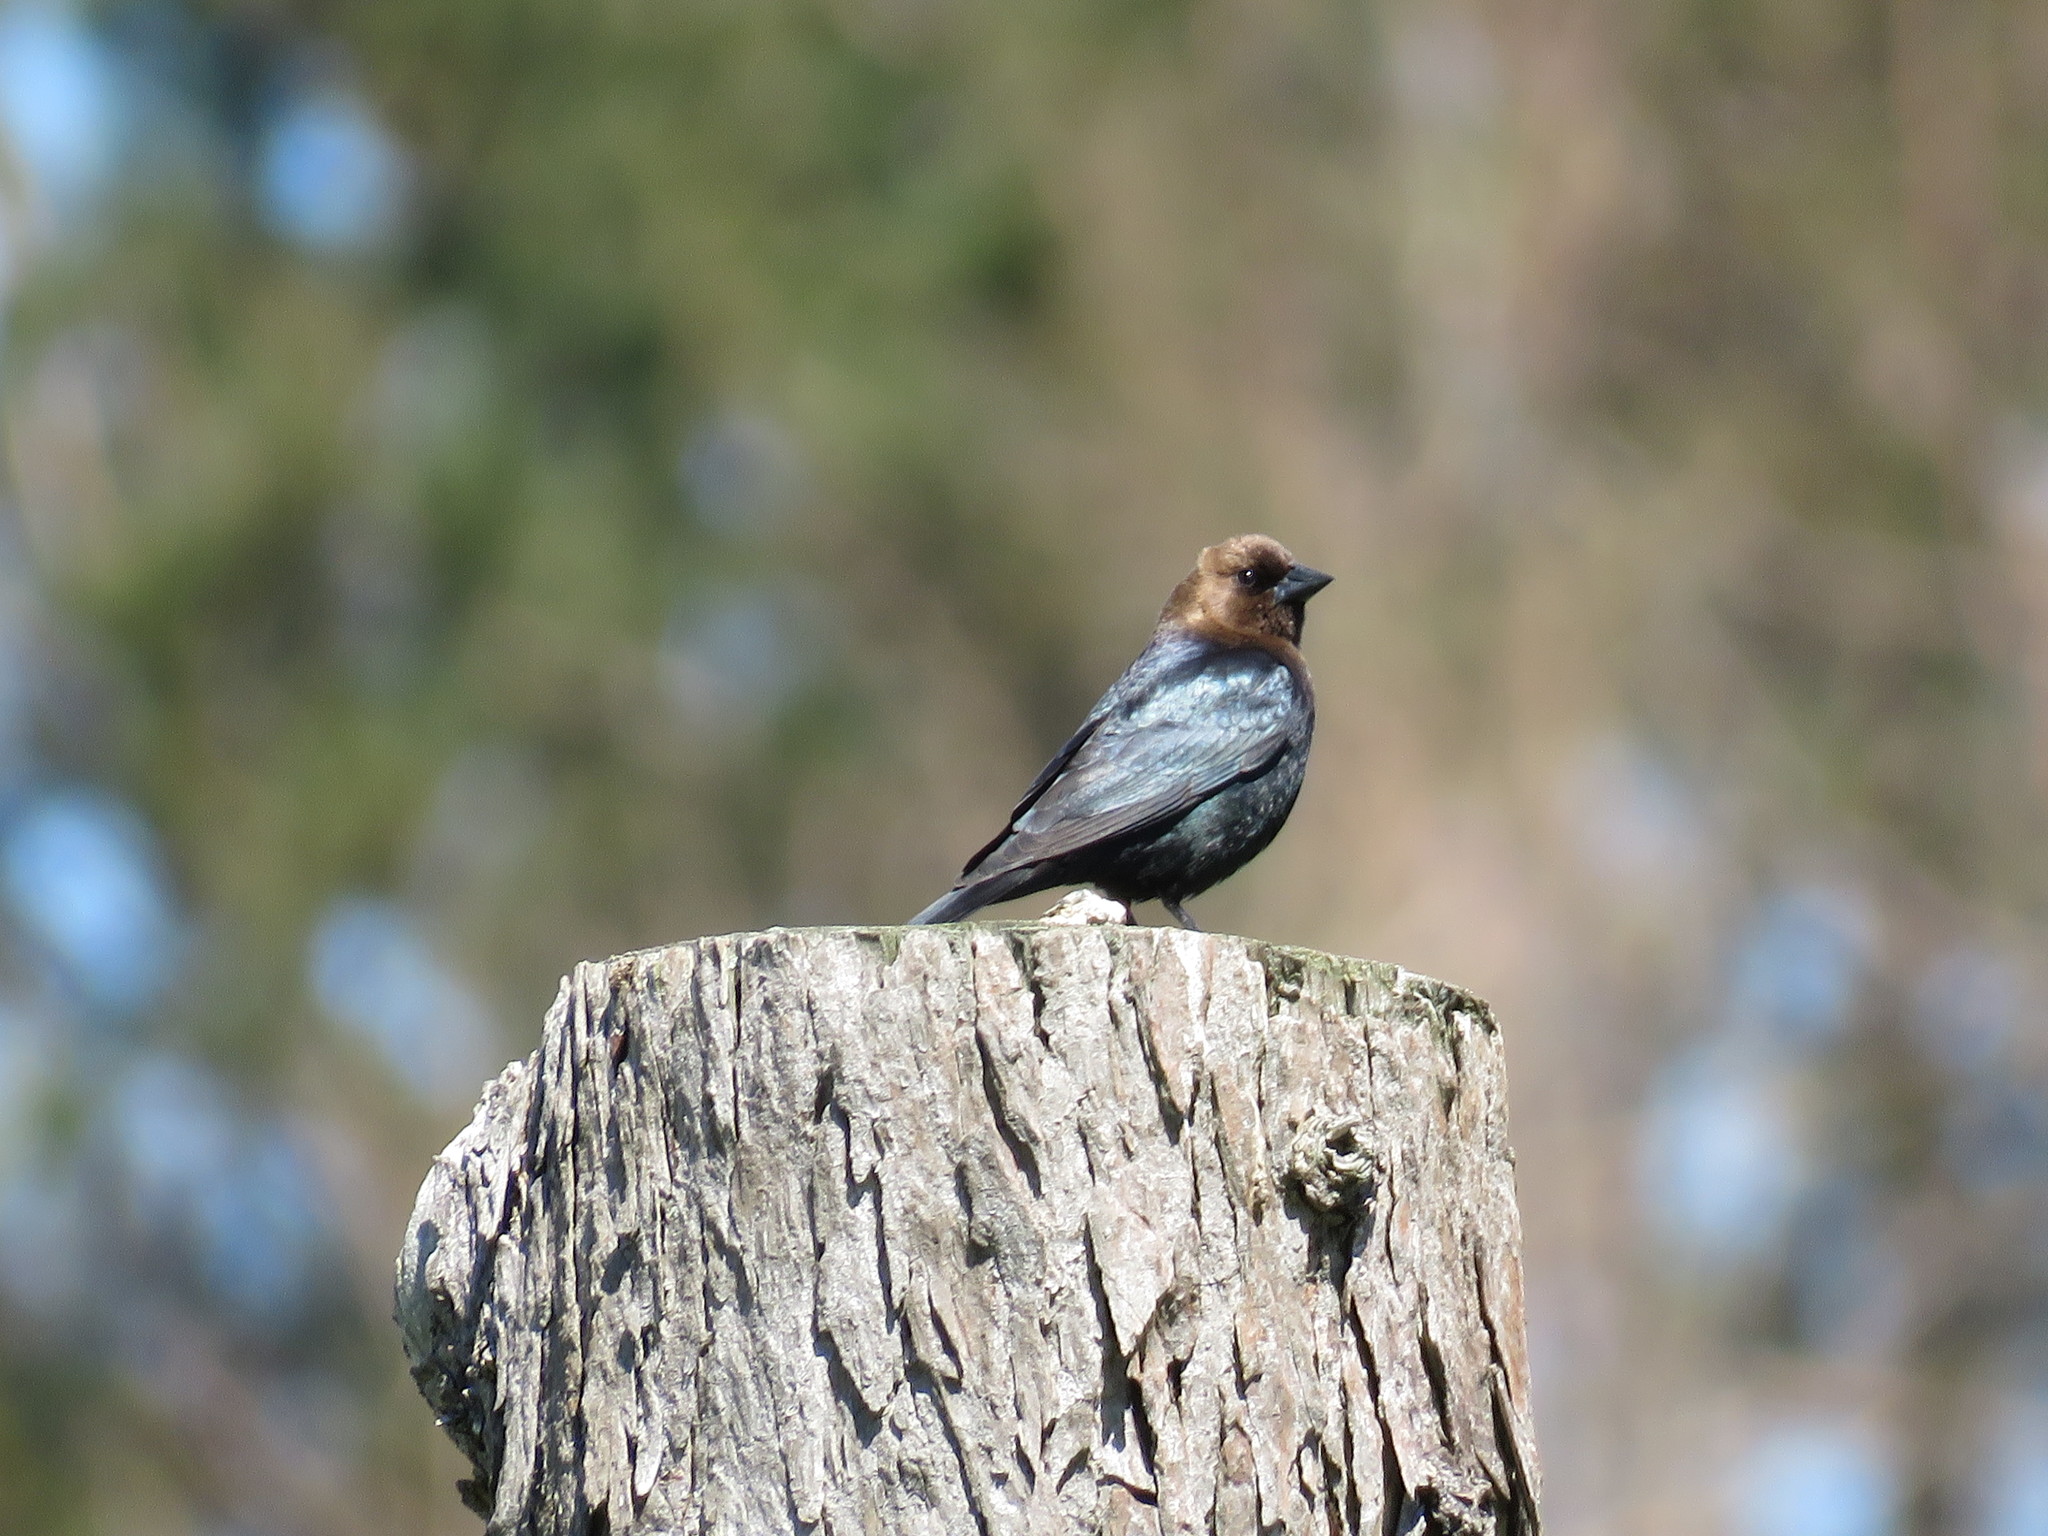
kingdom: Animalia
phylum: Chordata
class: Aves
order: Passeriformes
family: Icteridae
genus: Molothrus
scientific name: Molothrus ater
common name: Brown-headed cowbird
